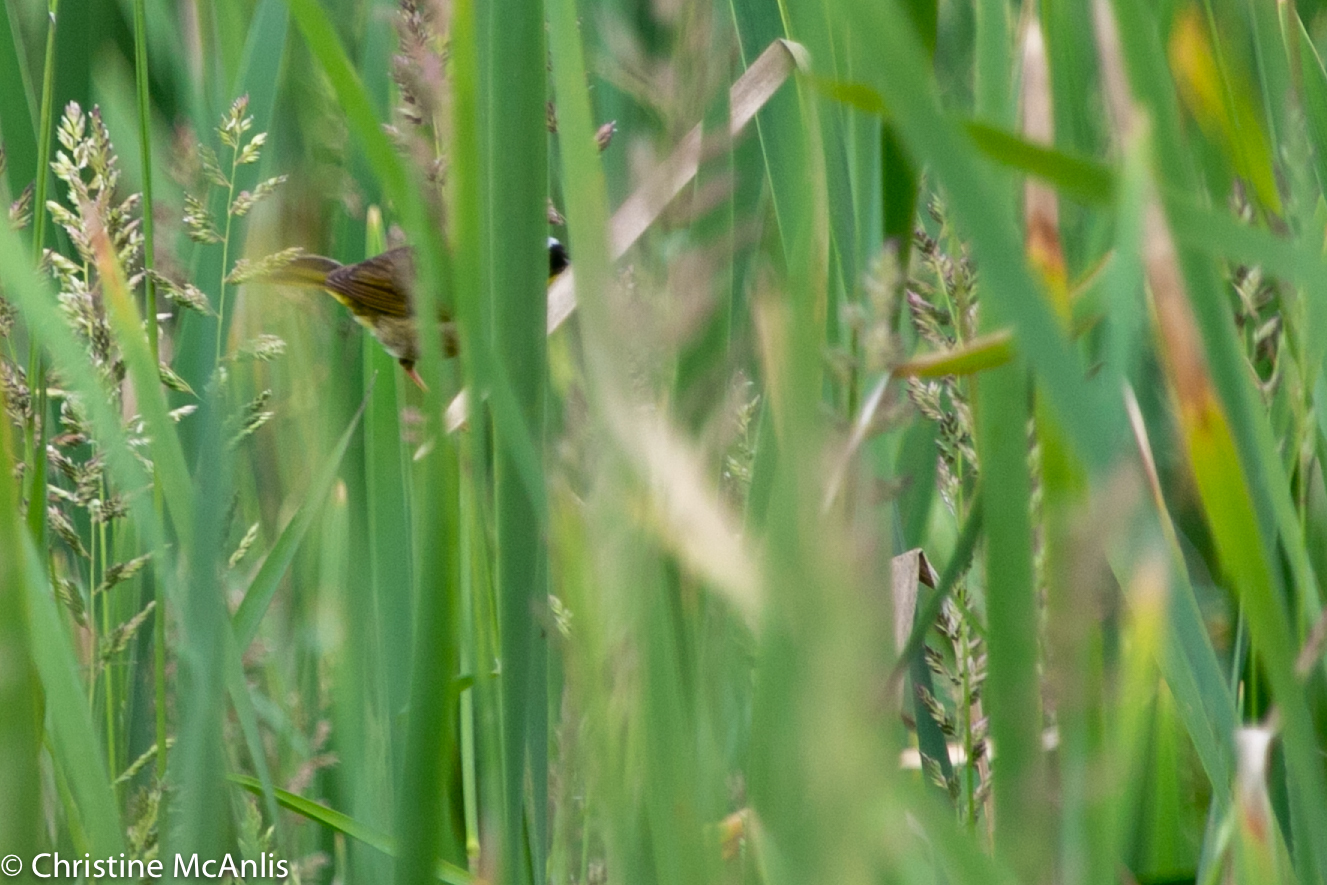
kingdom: Animalia
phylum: Chordata
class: Aves
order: Passeriformes
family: Parulidae
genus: Geothlypis
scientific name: Geothlypis trichas
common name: Common yellowthroat
